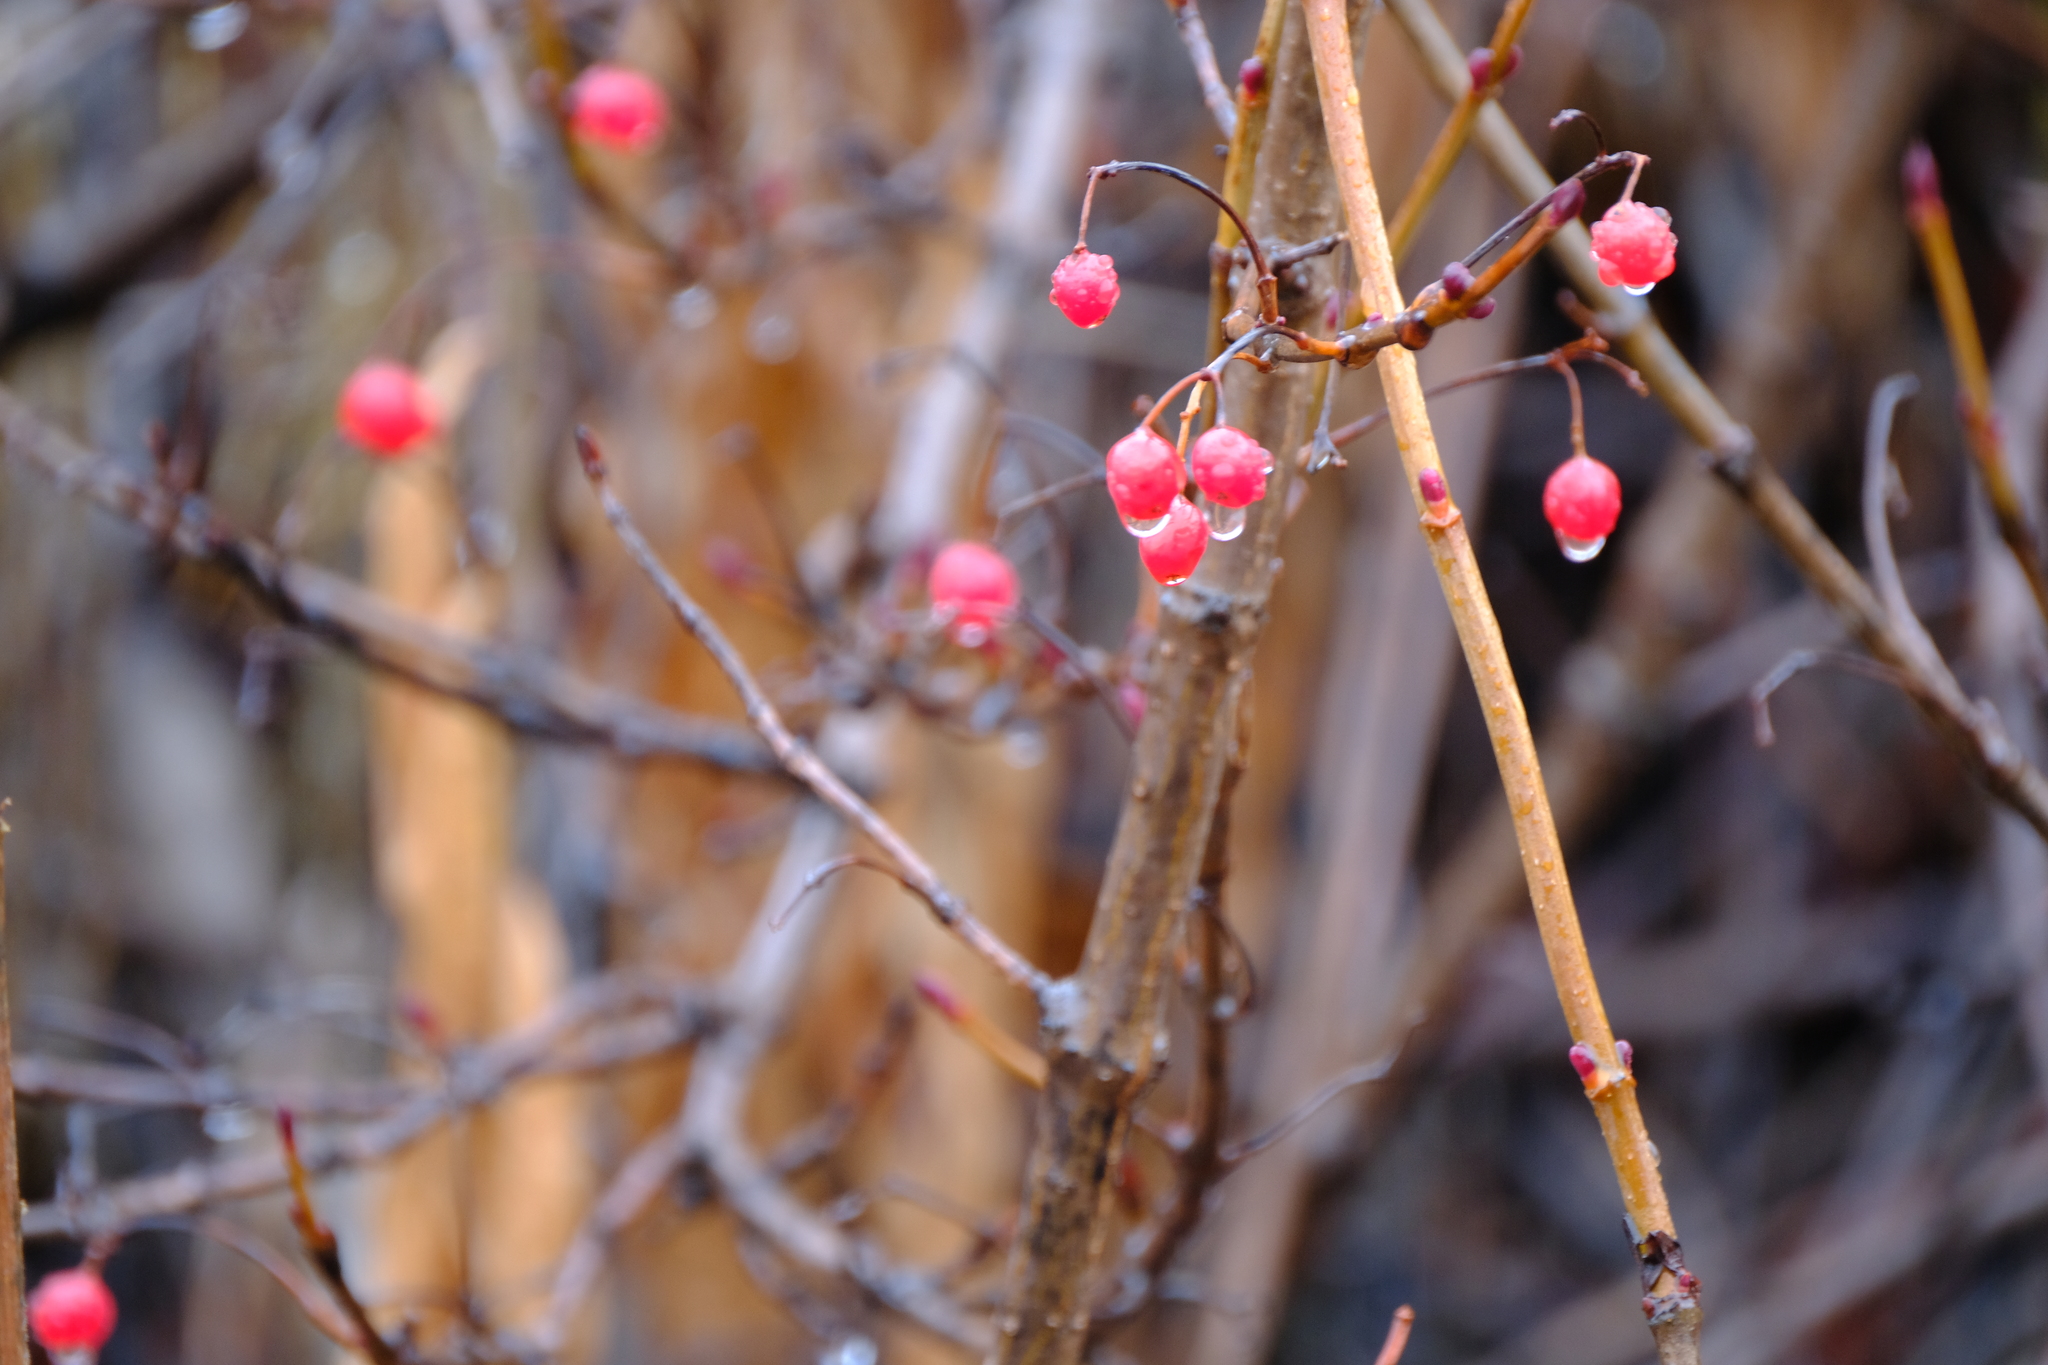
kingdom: Plantae
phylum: Tracheophyta
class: Magnoliopsida
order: Dipsacales
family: Viburnaceae
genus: Viburnum
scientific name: Viburnum edule
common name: Mooseberry
